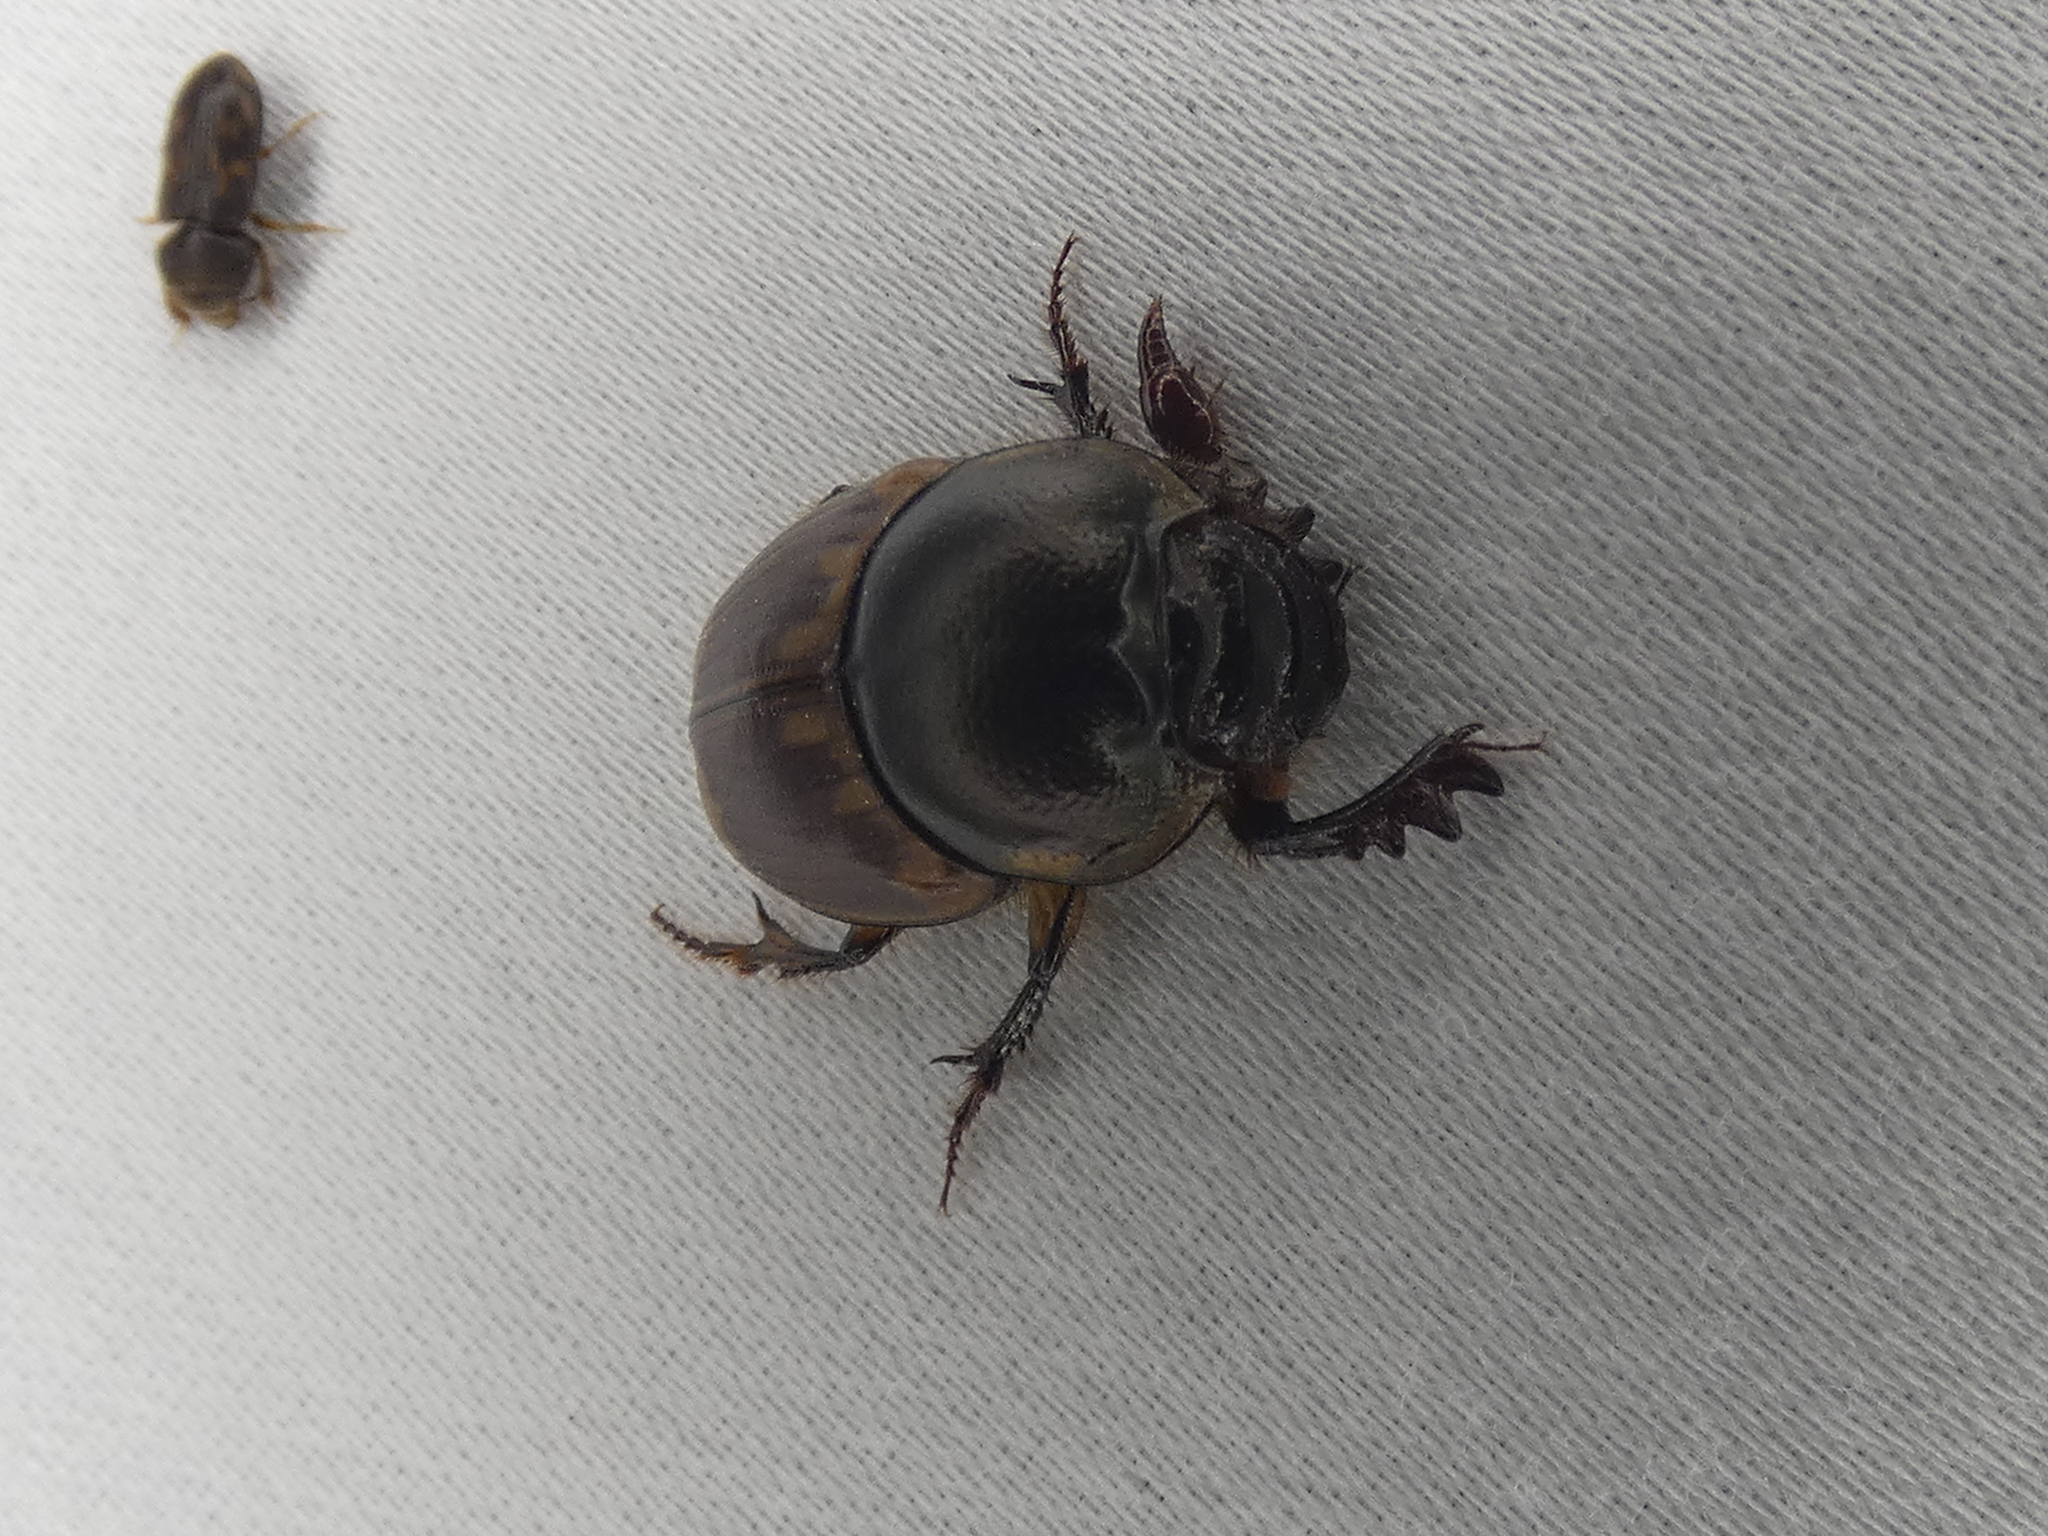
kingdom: Animalia
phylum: Arthropoda
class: Insecta
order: Coleoptera
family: Scarabaeidae
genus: Digitonthophagus
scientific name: Digitonthophagus gazella
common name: Brown dung beetle
